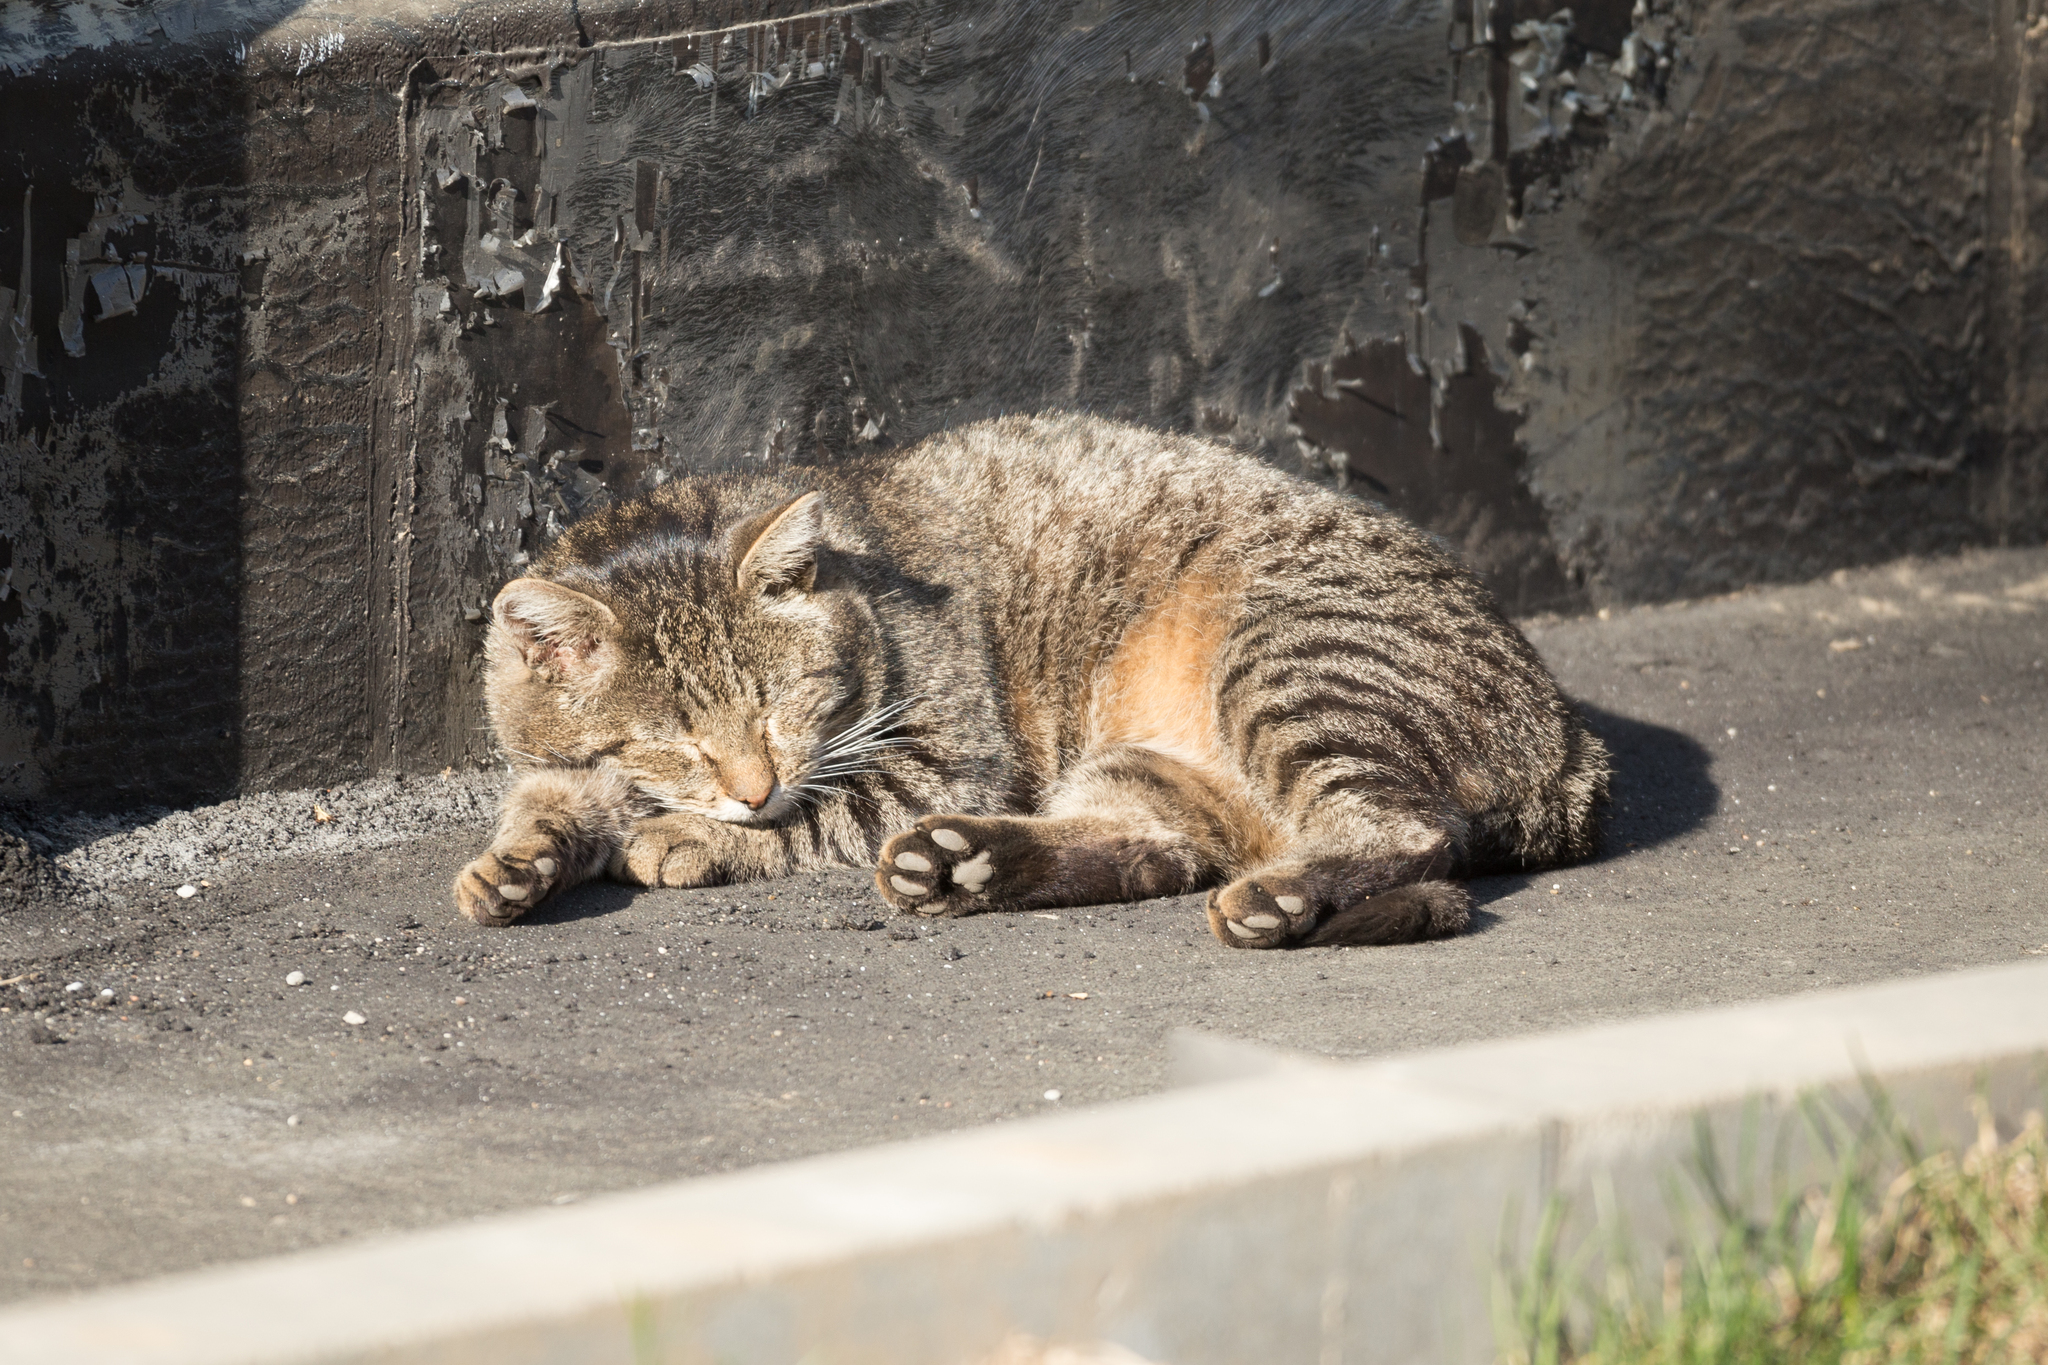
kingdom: Animalia
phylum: Chordata
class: Mammalia
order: Carnivora
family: Felidae
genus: Felis
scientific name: Felis catus
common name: Domestic cat
